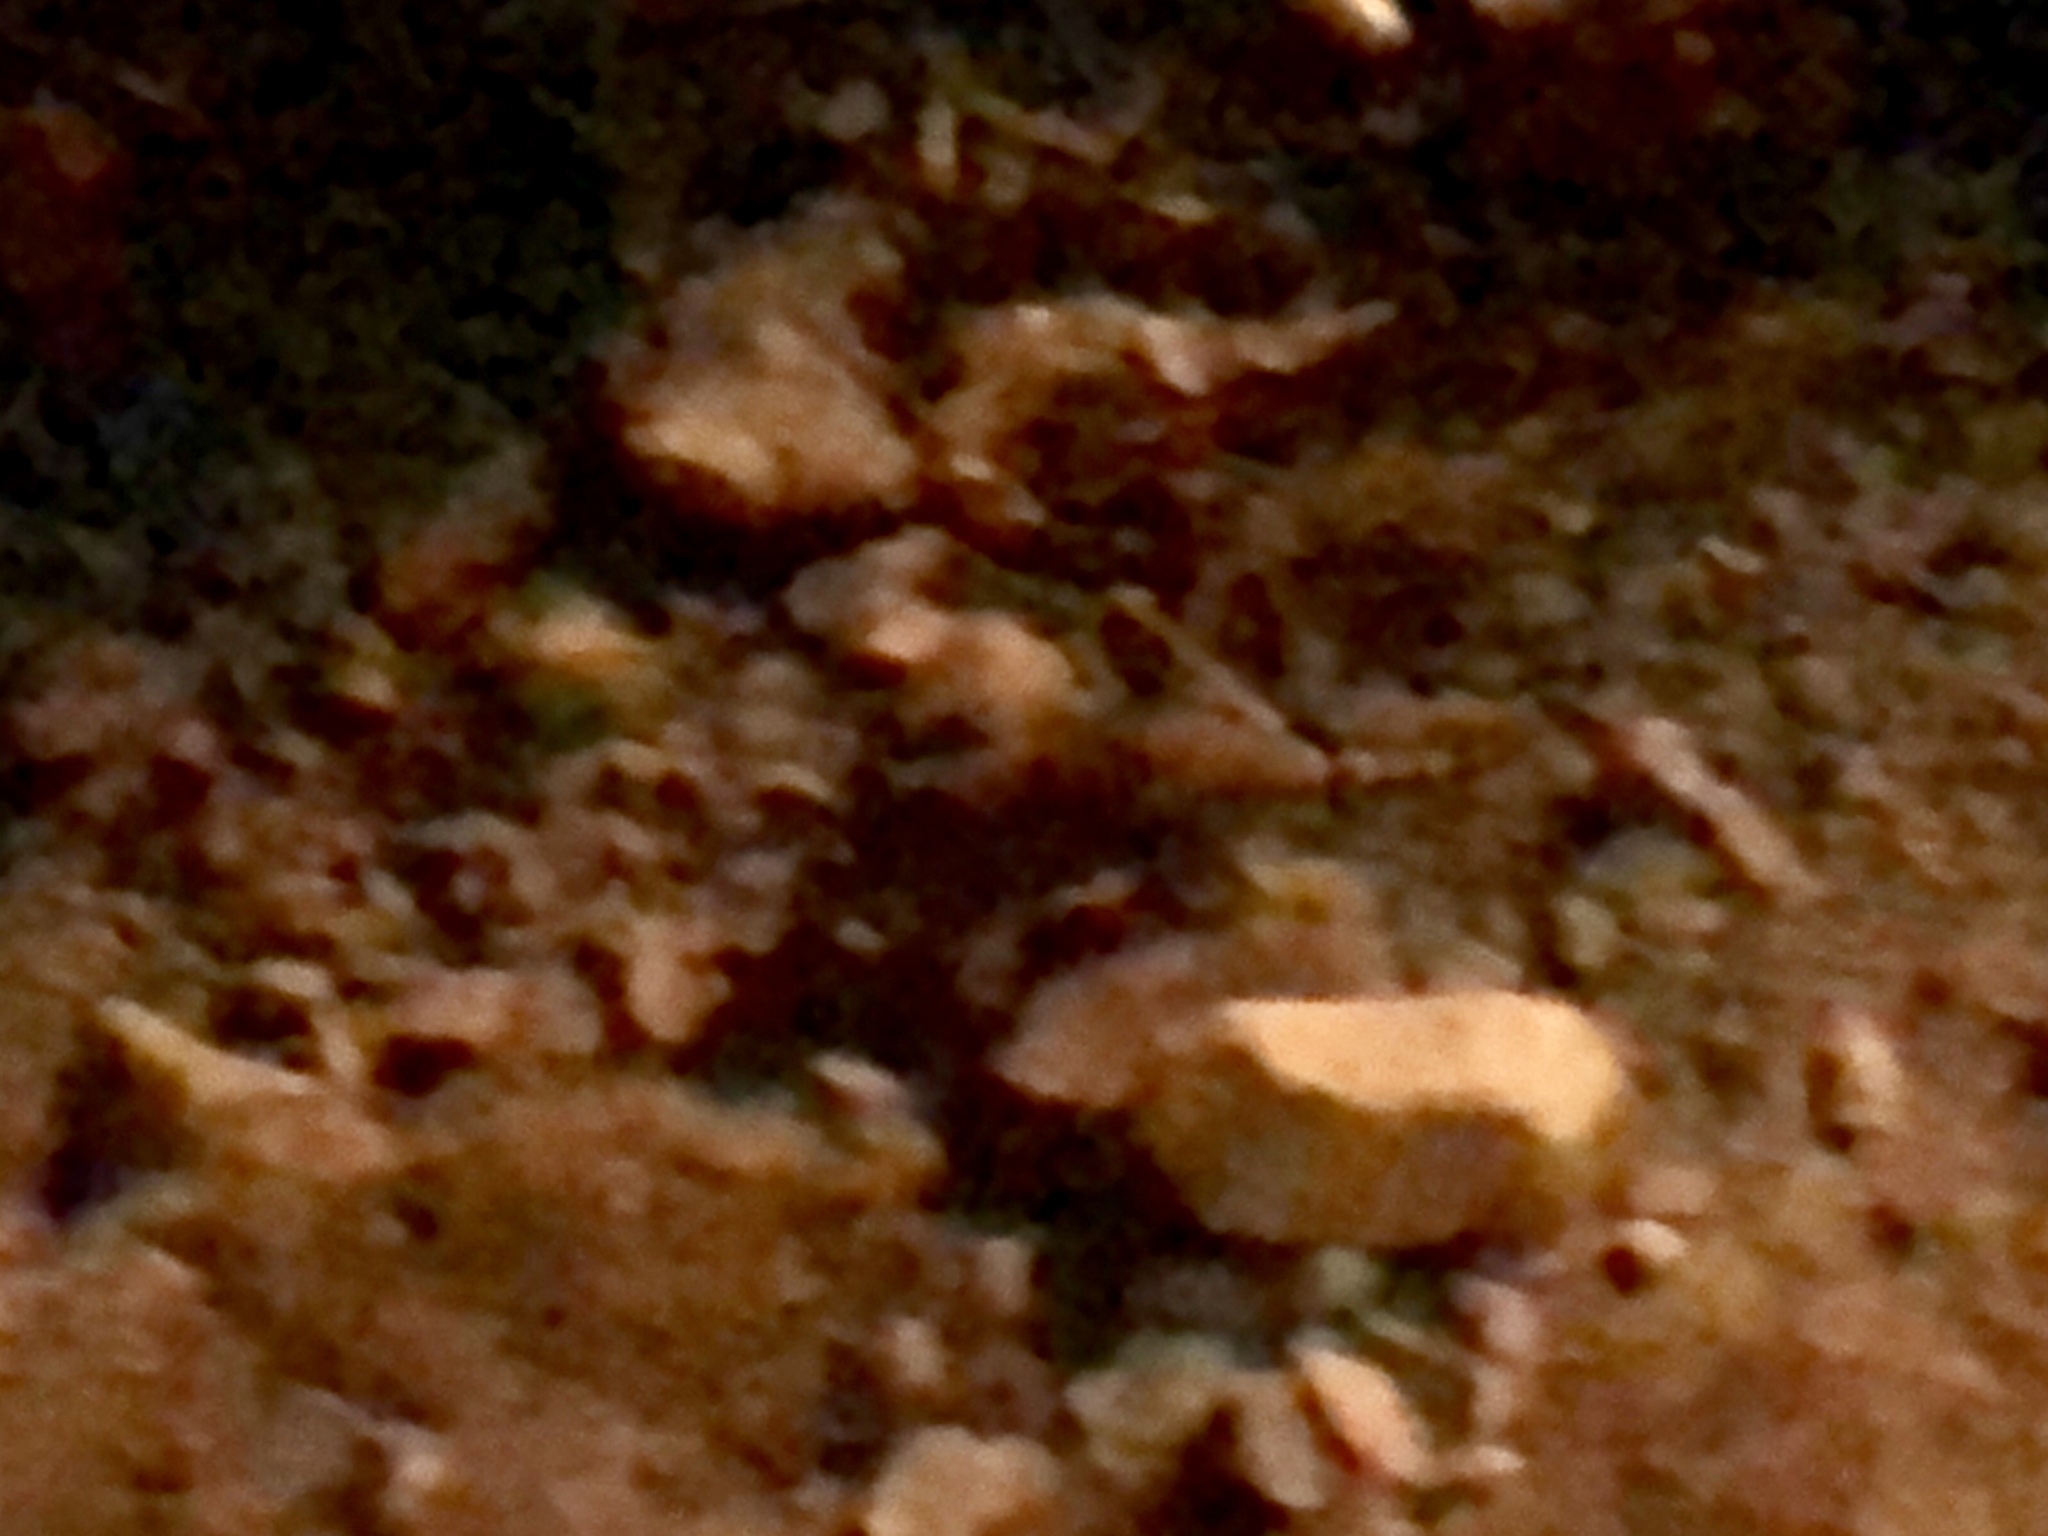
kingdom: Animalia
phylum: Chordata
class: Mammalia
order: Carnivora
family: Procyonidae
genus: Procyon
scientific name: Procyon lotor
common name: Raccoon
